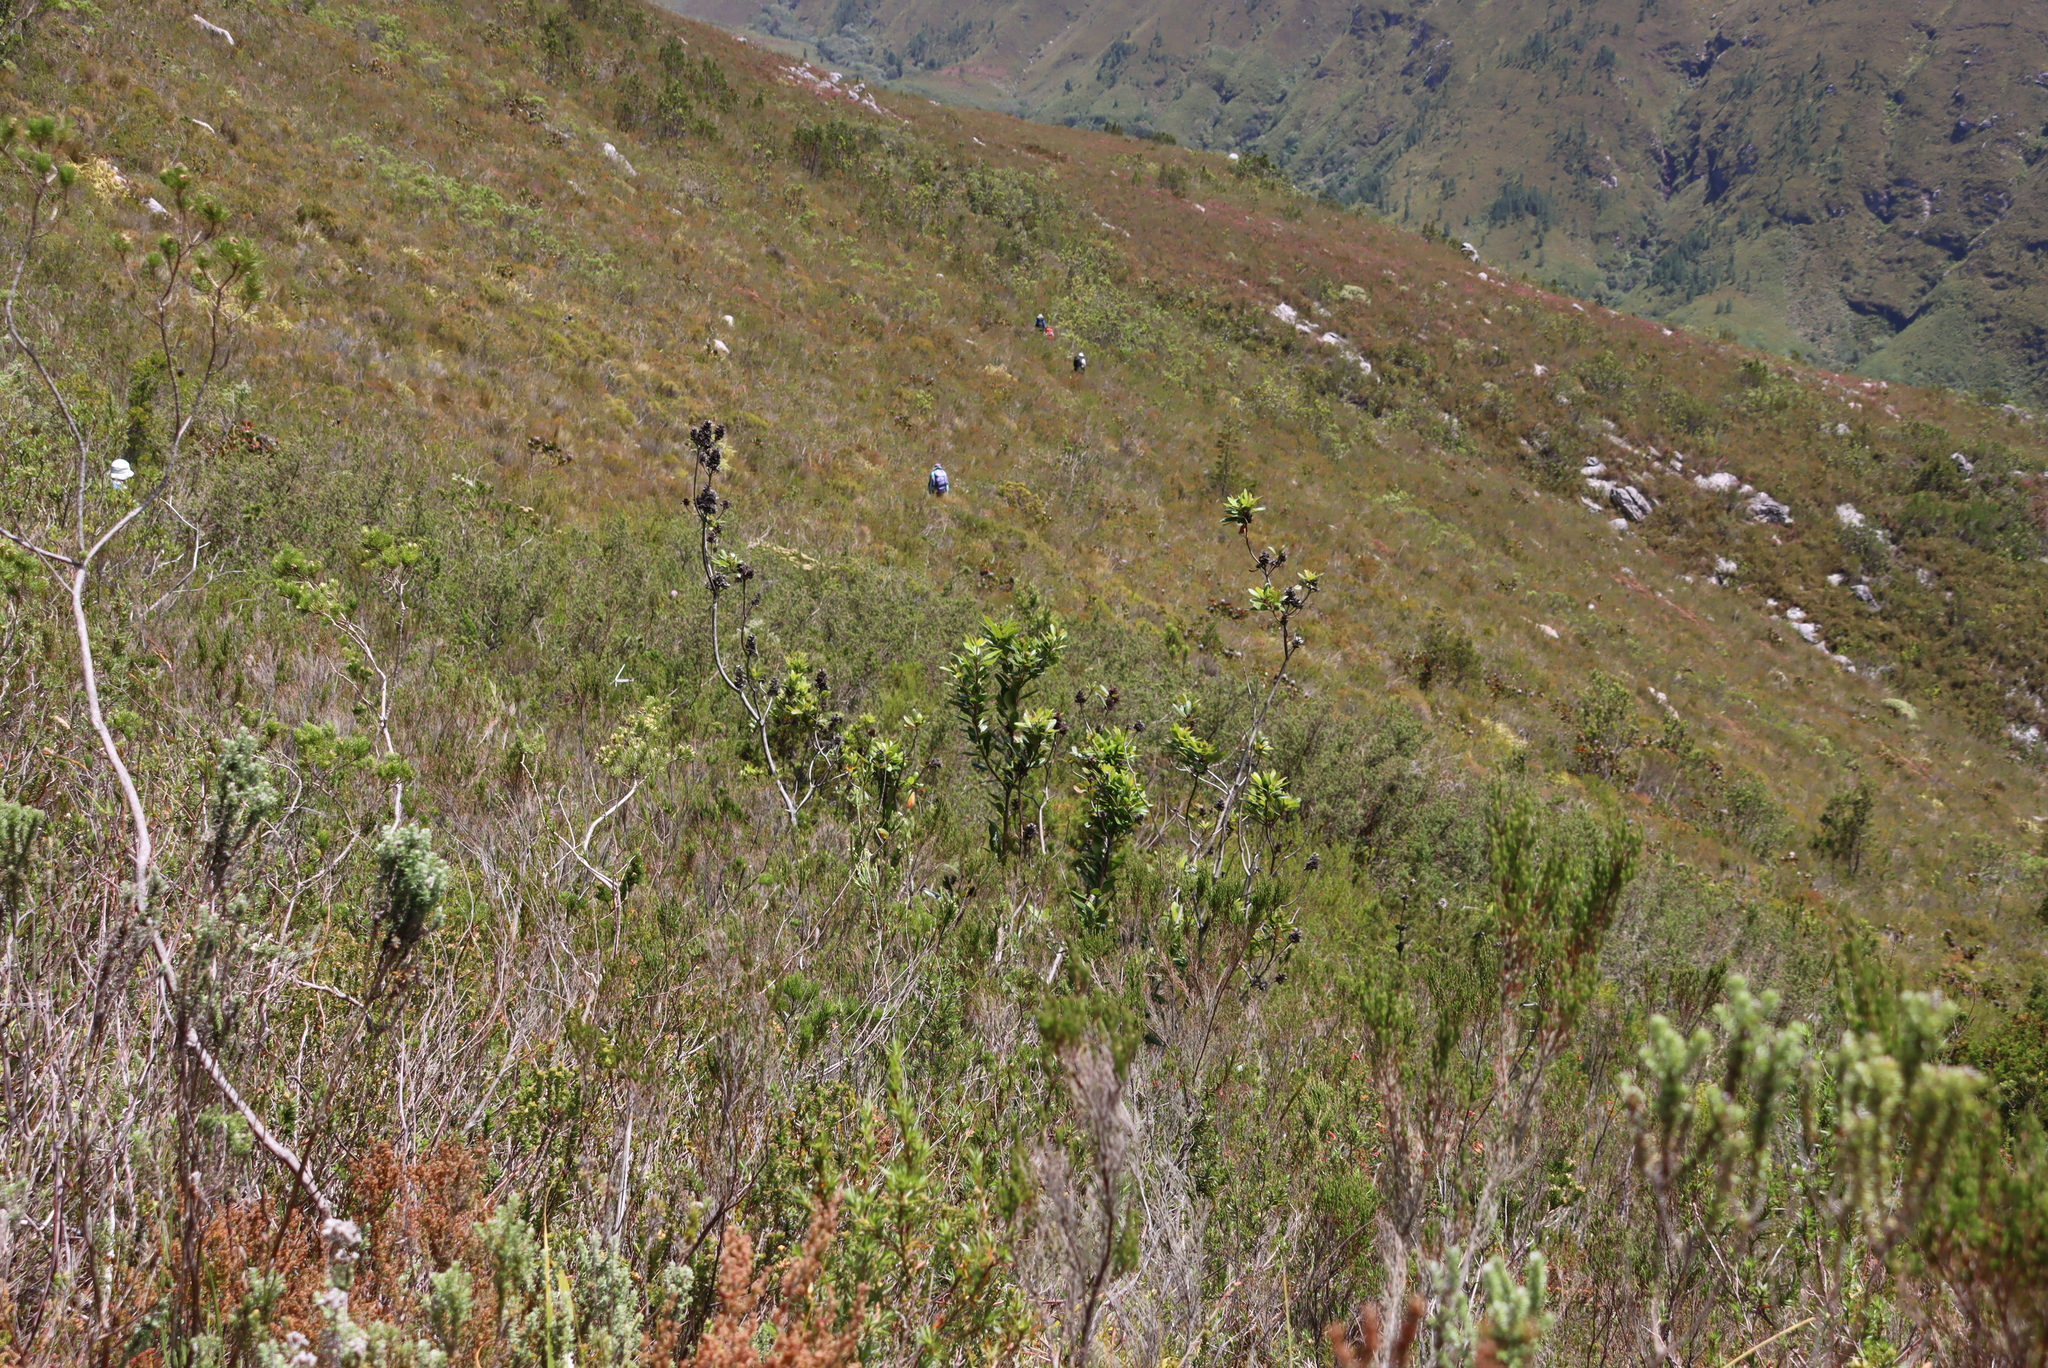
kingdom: Plantae
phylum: Tracheophyta
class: Magnoliopsida
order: Sapindales
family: Anacardiaceae
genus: Laurophyllus
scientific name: Laurophyllus capensis
